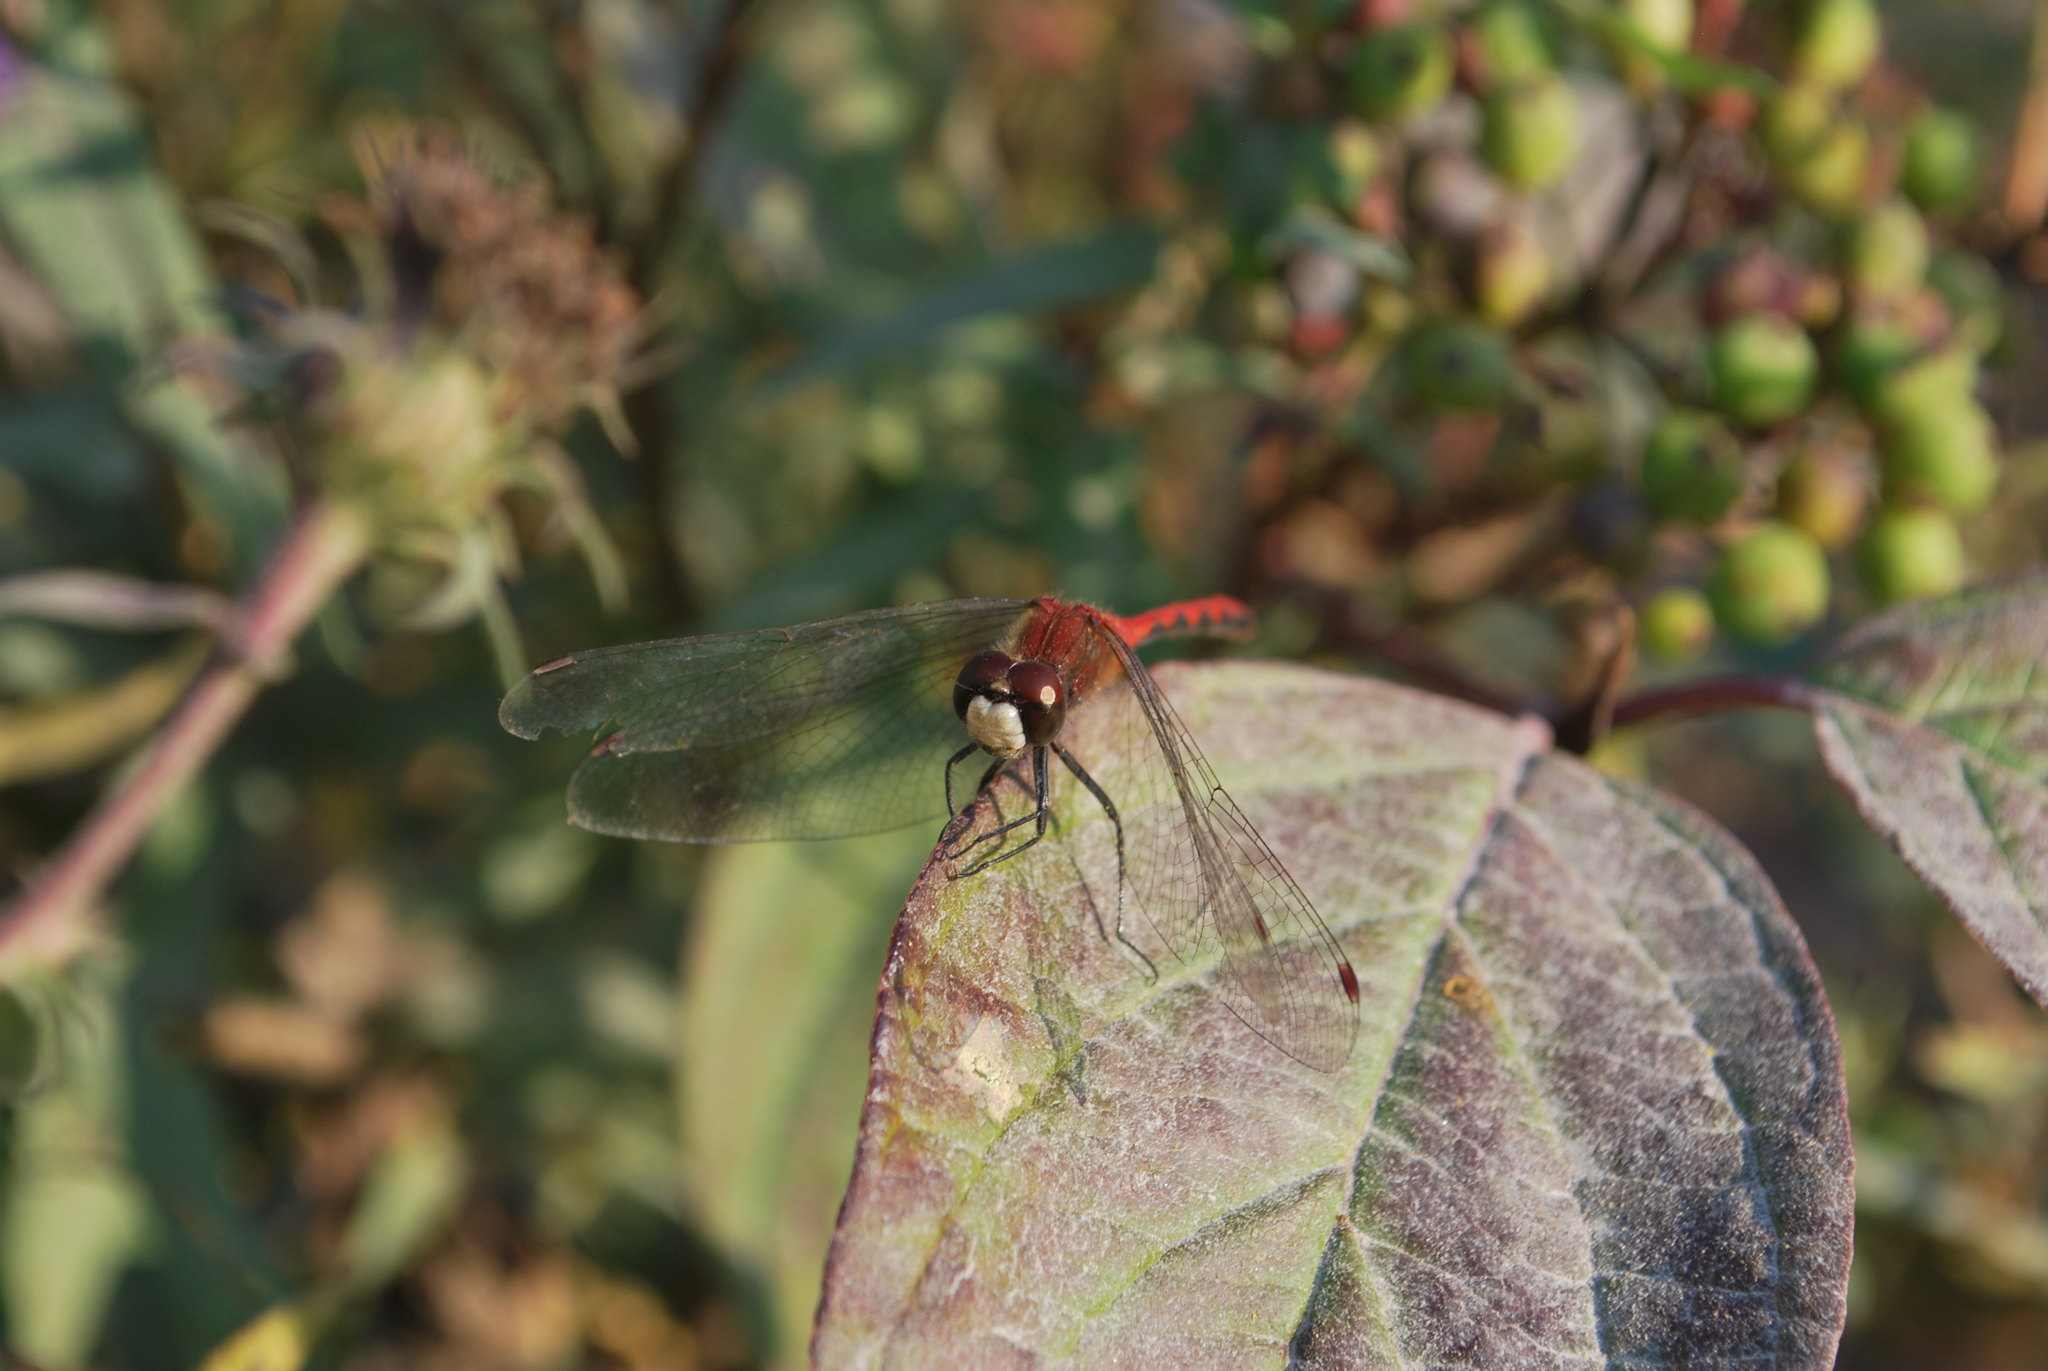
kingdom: Animalia
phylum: Arthropoda
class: Insecta
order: Odonata
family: Libellulidae
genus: Sympetrum
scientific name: Sympetrum obtrusum
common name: White-faced meadowhawk
